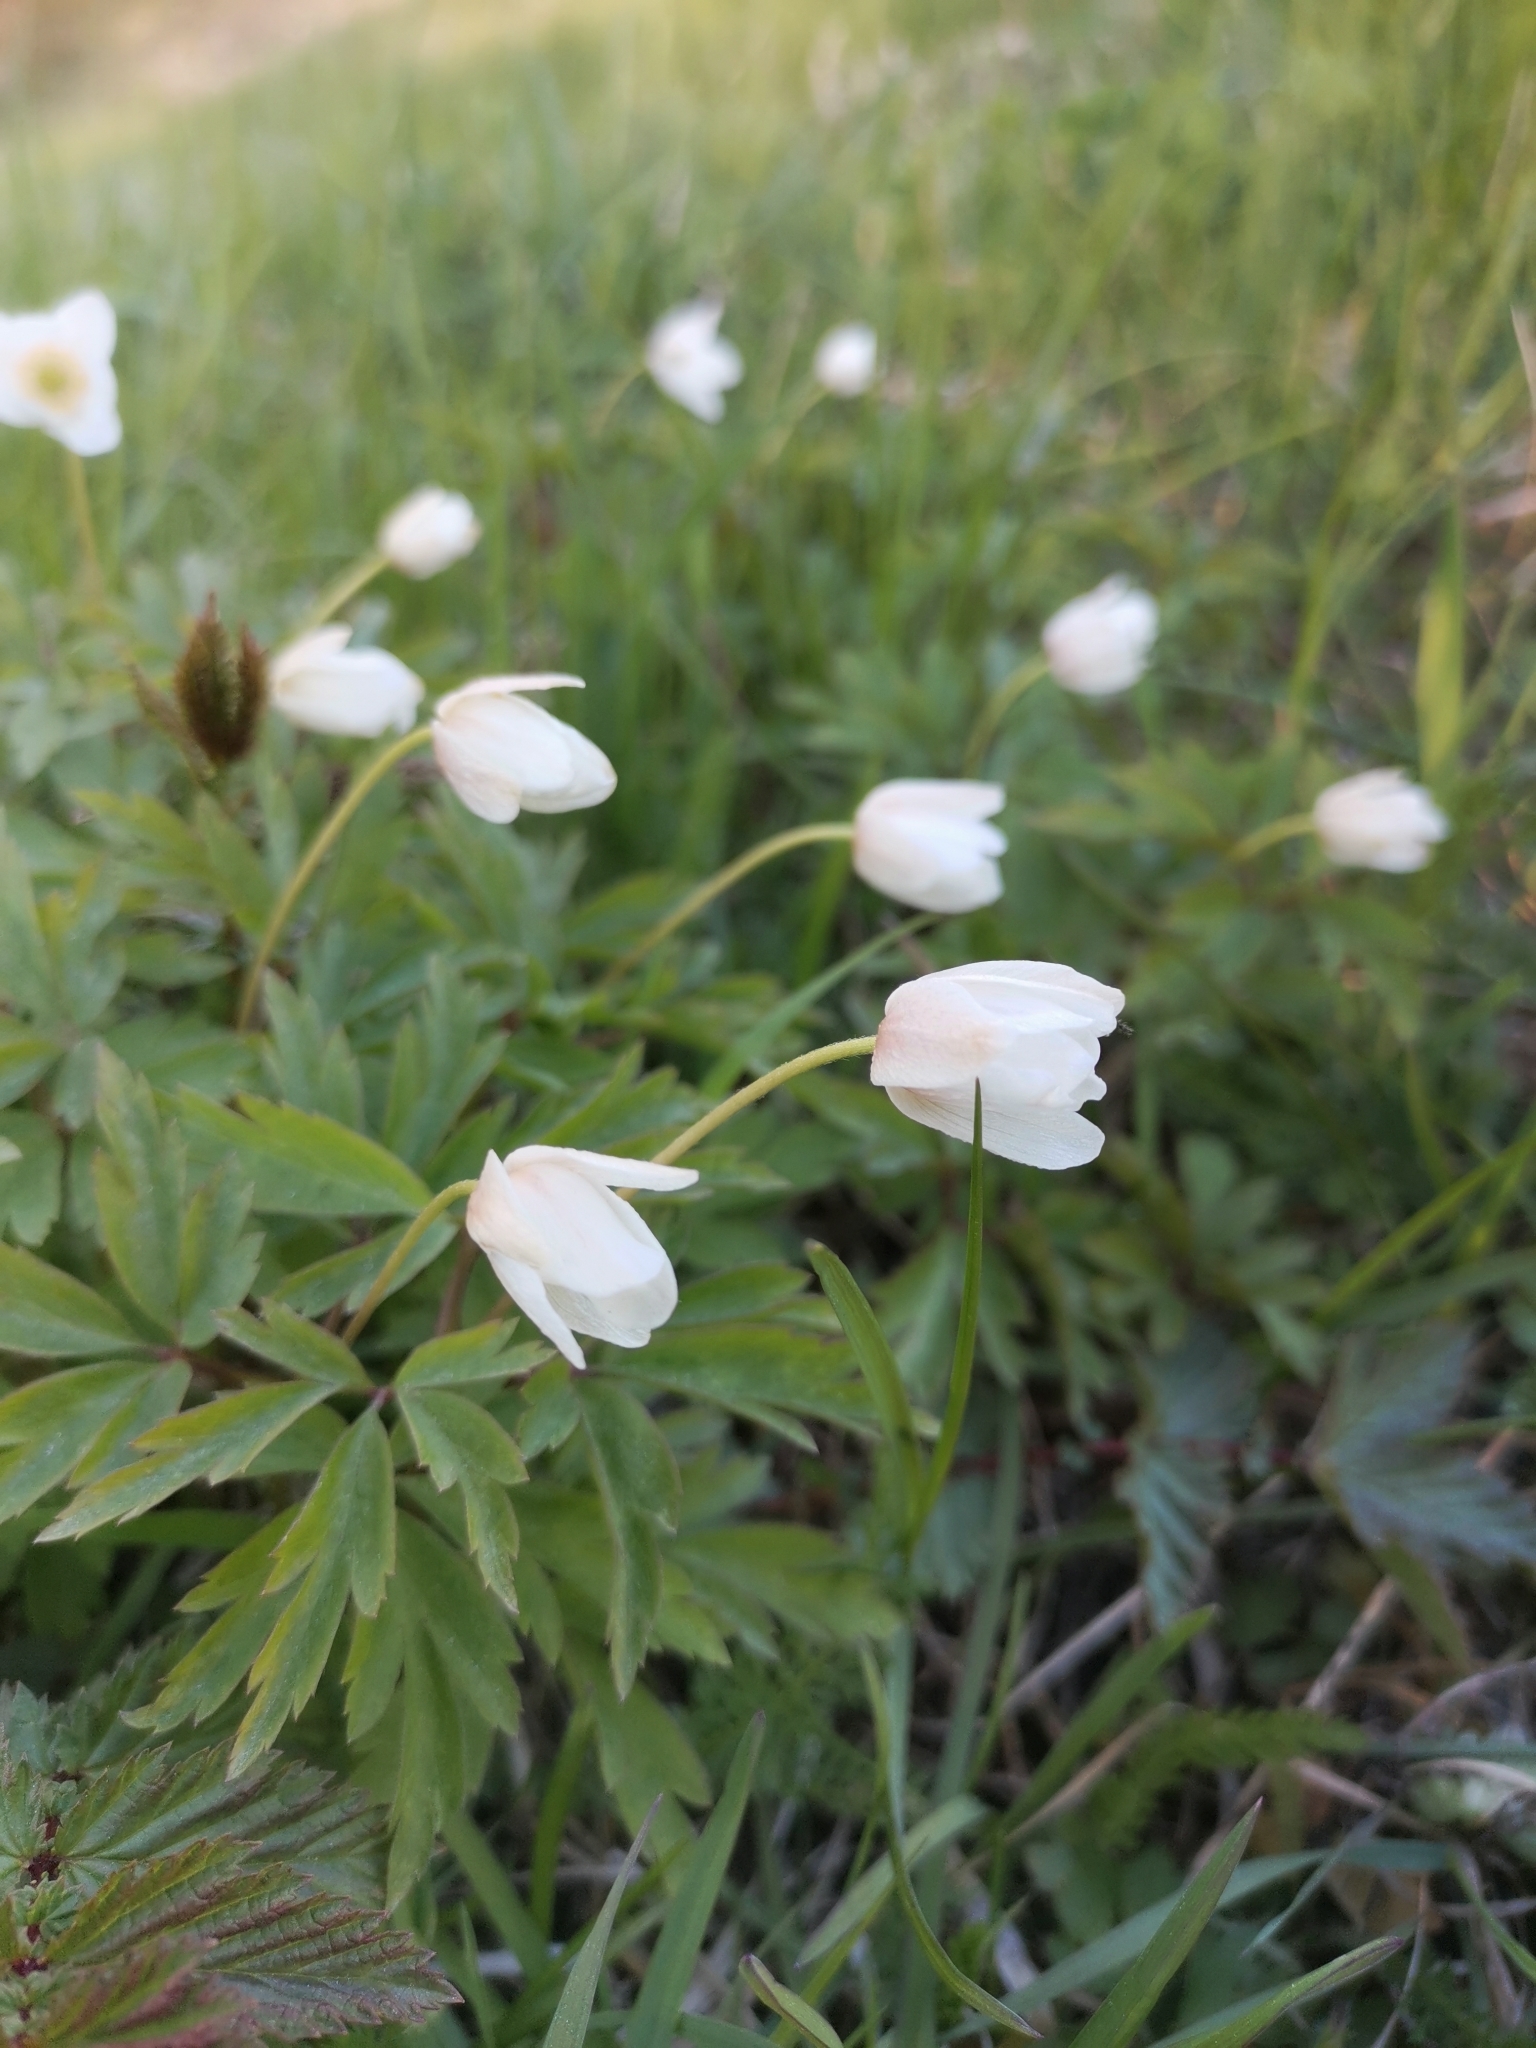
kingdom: Plantae
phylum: Tracheophyta
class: Magnoliopsida
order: Ranunculales
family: Ranunculaceae
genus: Anemone
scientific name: Anemone nemorosa
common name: Wood anemone
